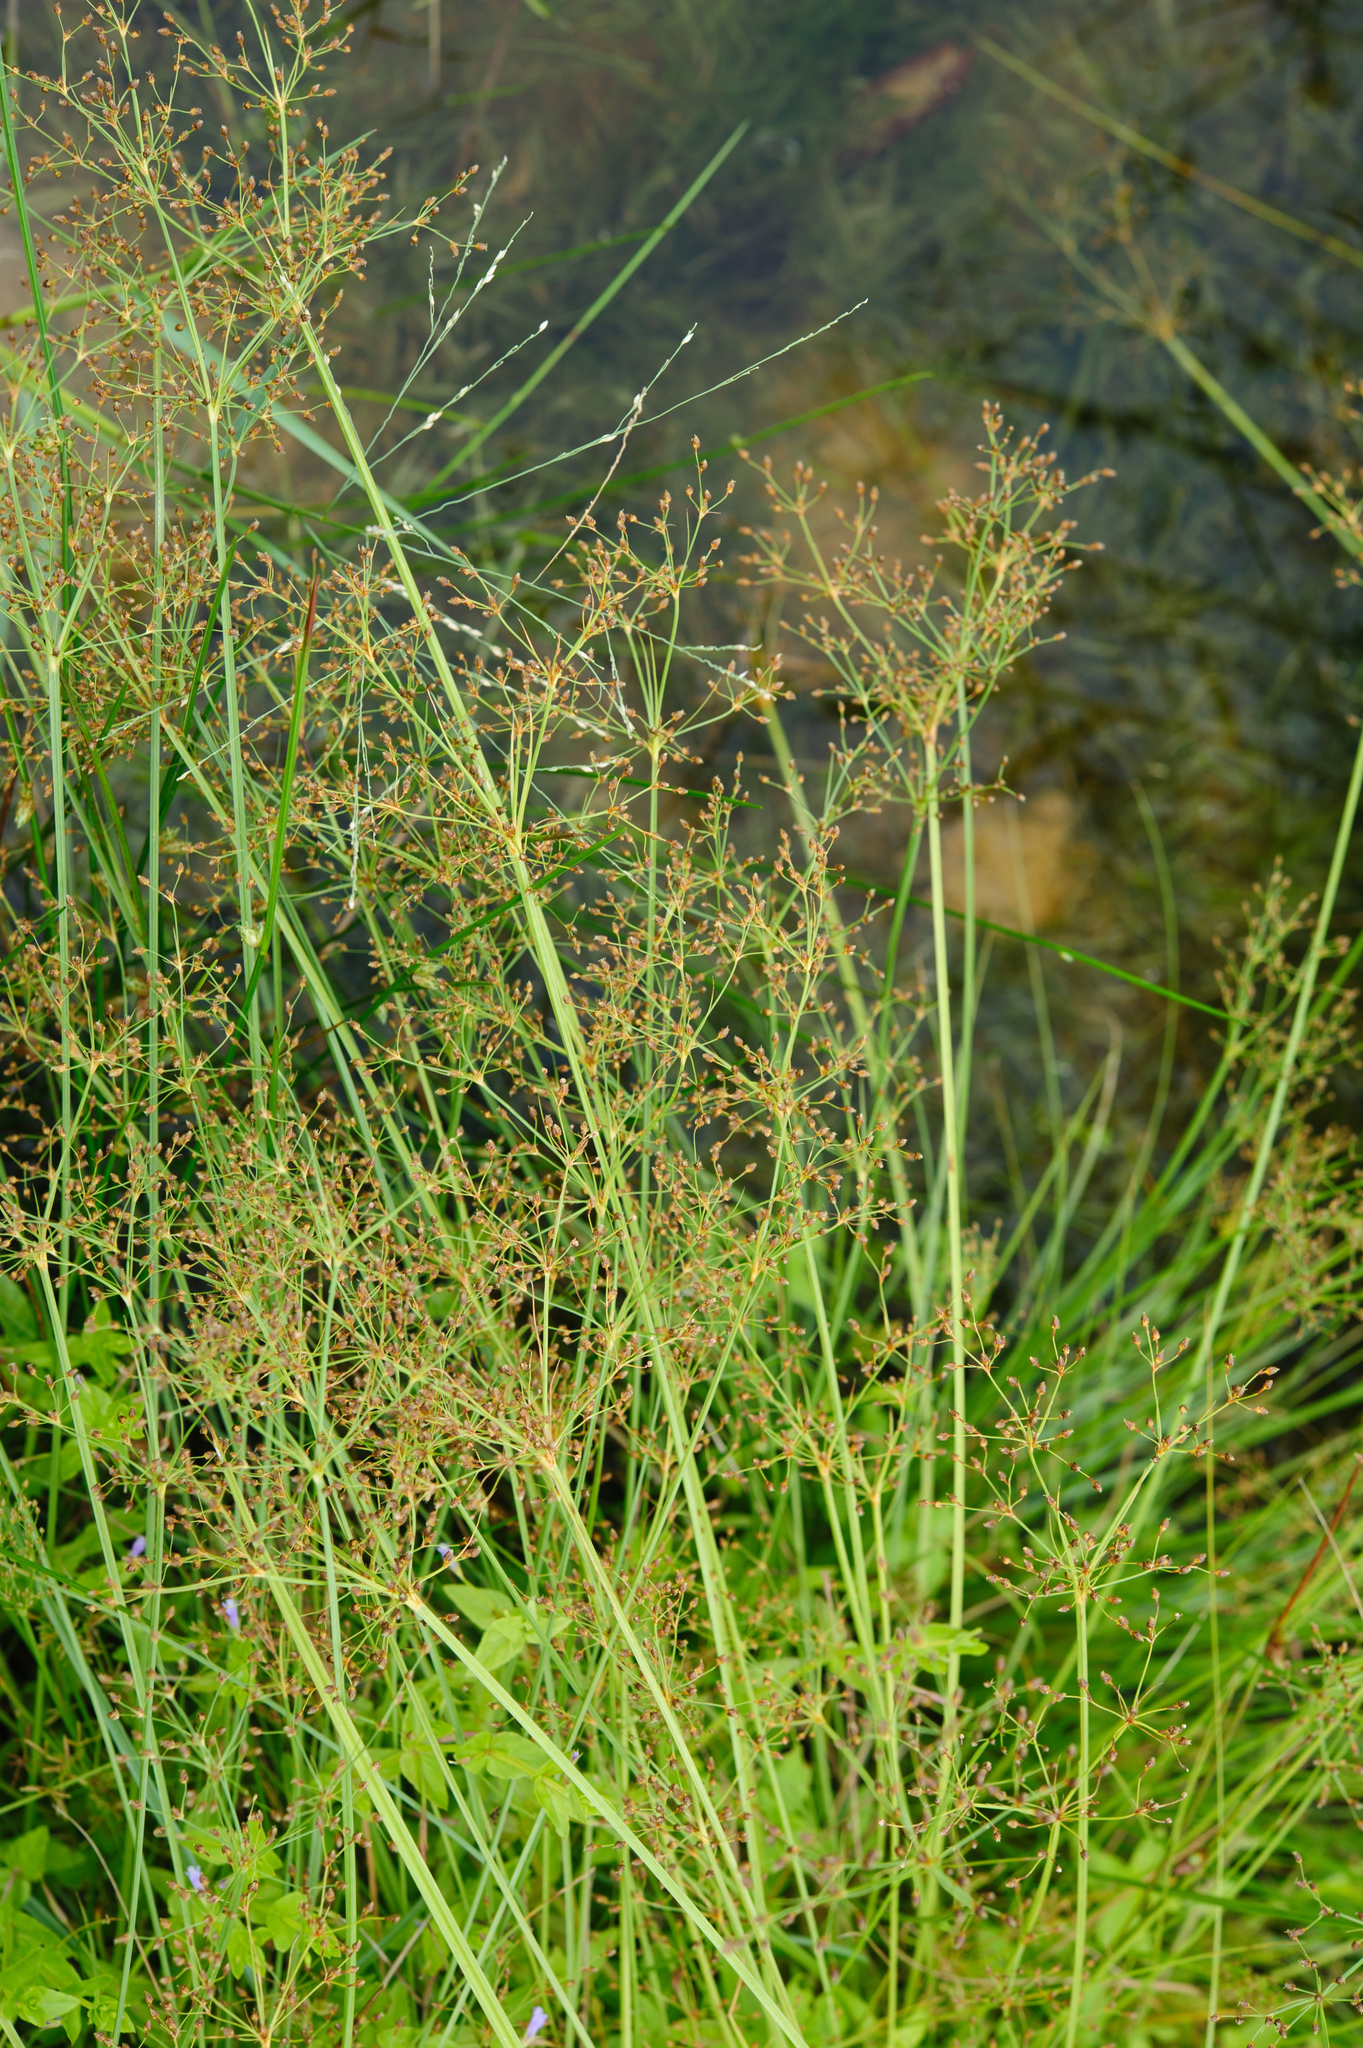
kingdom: Plantae
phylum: Tracheophyta
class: Liliopsida
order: Poales
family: Cyperaceae
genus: Fimbristylis
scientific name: Fimbristylis littoralis
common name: Fimbry
